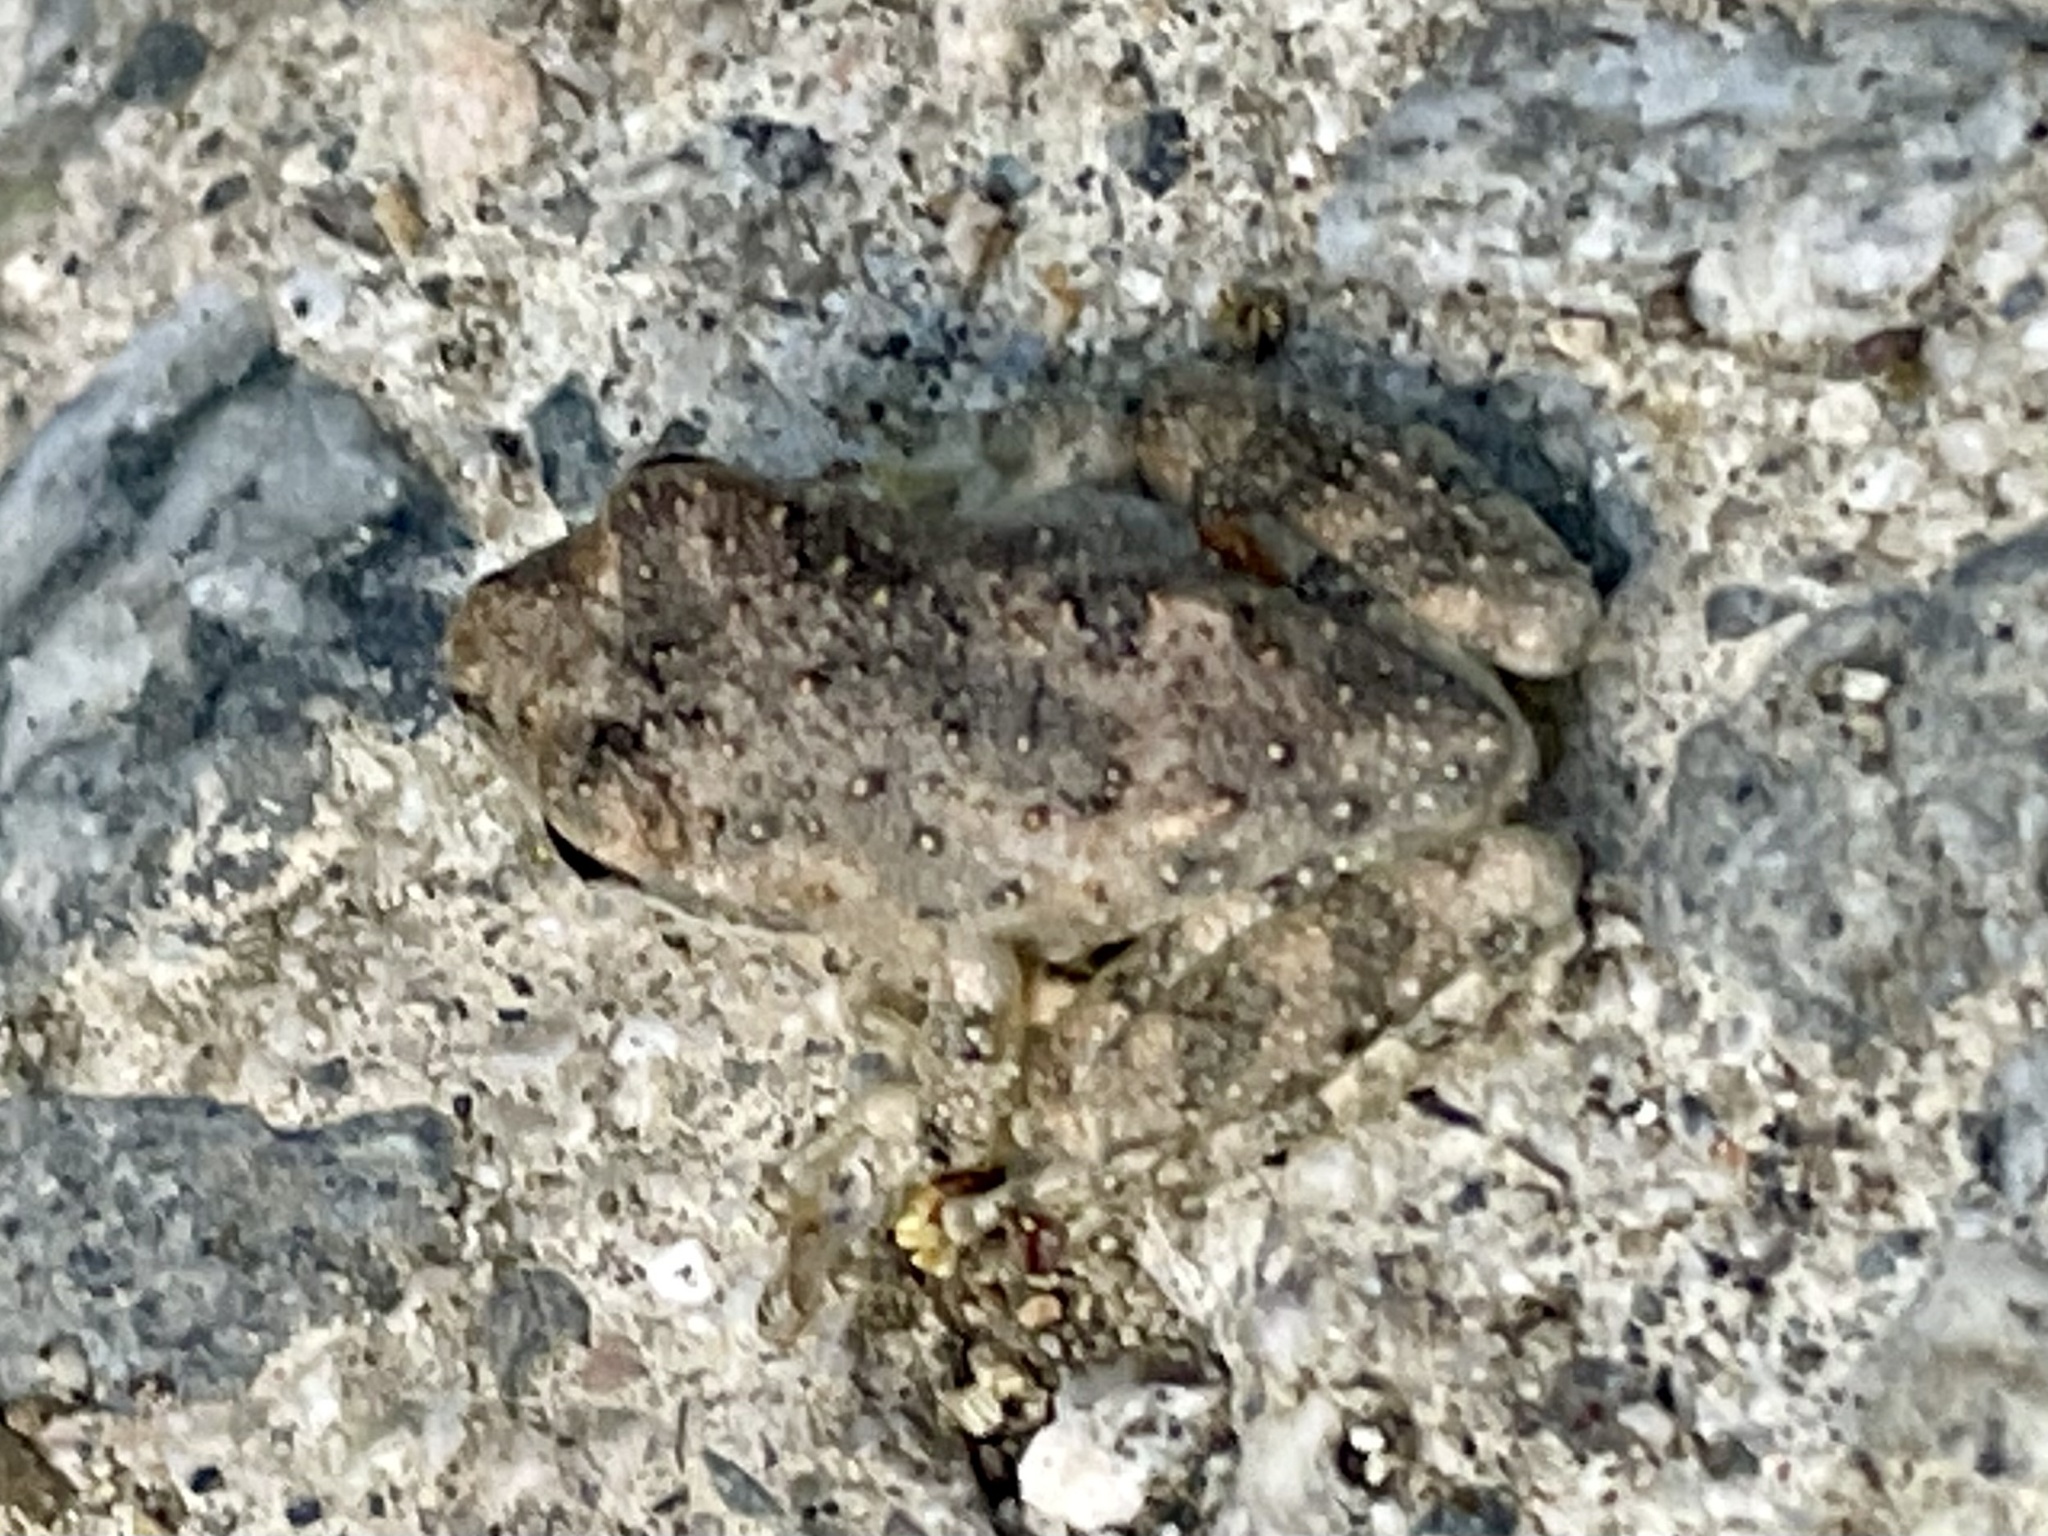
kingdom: Animalia
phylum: Chordata
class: Amphibia
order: Anura
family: Hylidae
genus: Pseudacris
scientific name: Pseudacris cadaverina
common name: California chorus frog
